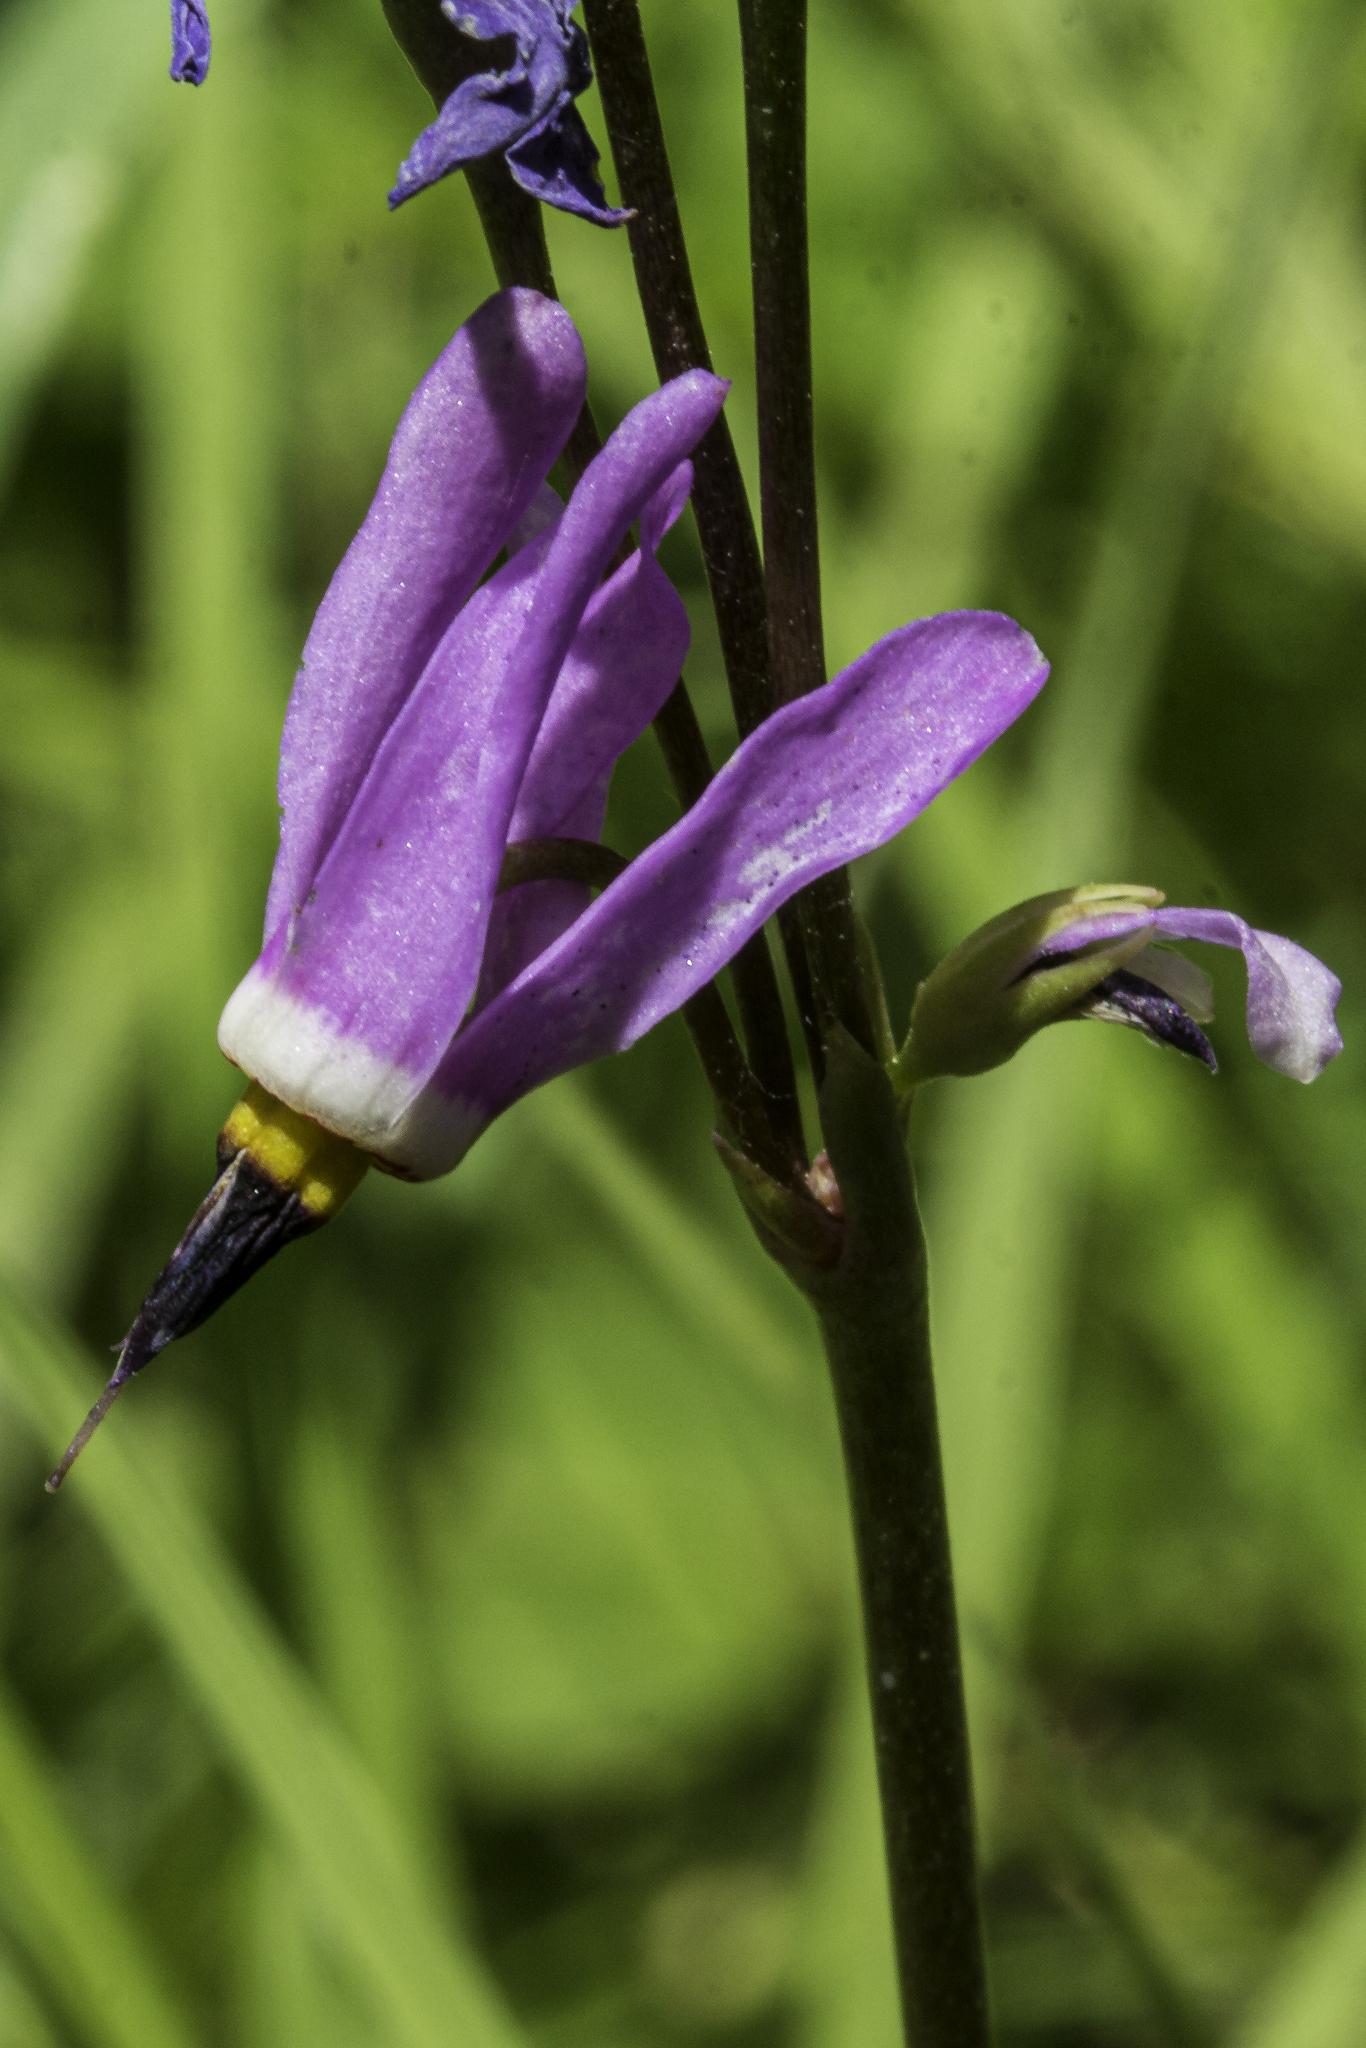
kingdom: Plantae
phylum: Tracheophyta
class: Magnoliopsida
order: Ericales
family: Primulaceae
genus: Dodecatheon
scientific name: Dodecatheon pulchellum
